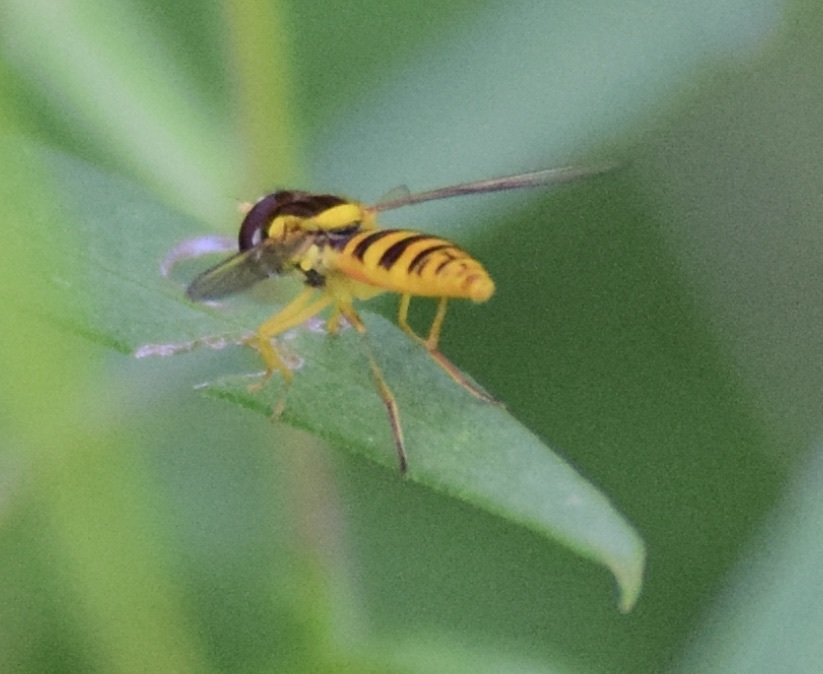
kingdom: Animalia
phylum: Arthropoda
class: Insecta
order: Diptera
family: Syrphidae
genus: Sphaerophoria
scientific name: Sphaerophoria
